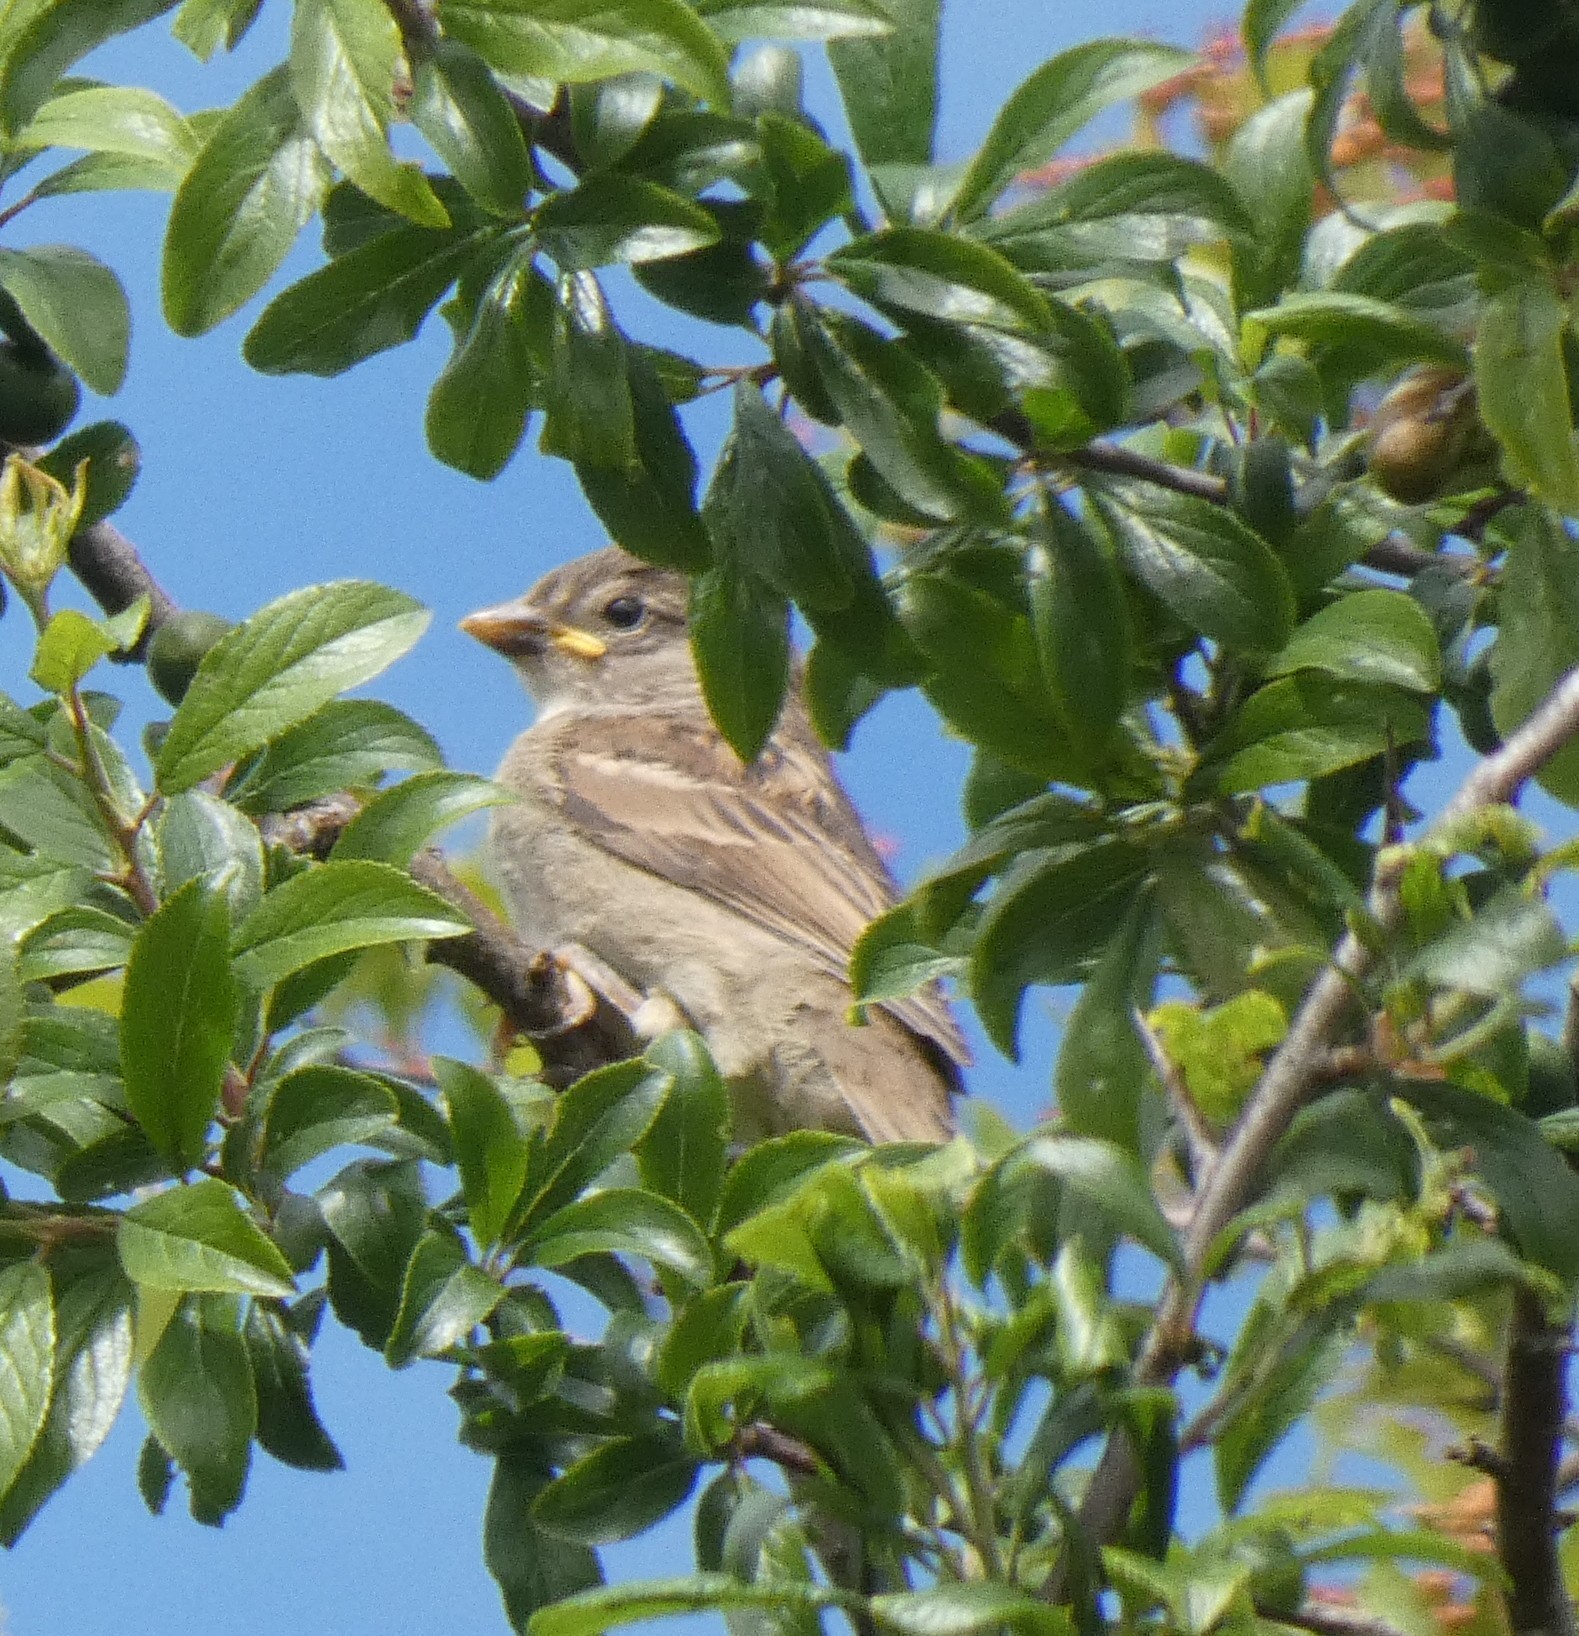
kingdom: Animalia
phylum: Chordata
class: Aves
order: Passeriformes
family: Passeridae
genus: Passer
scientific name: Passer domesticus
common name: House sparrow
